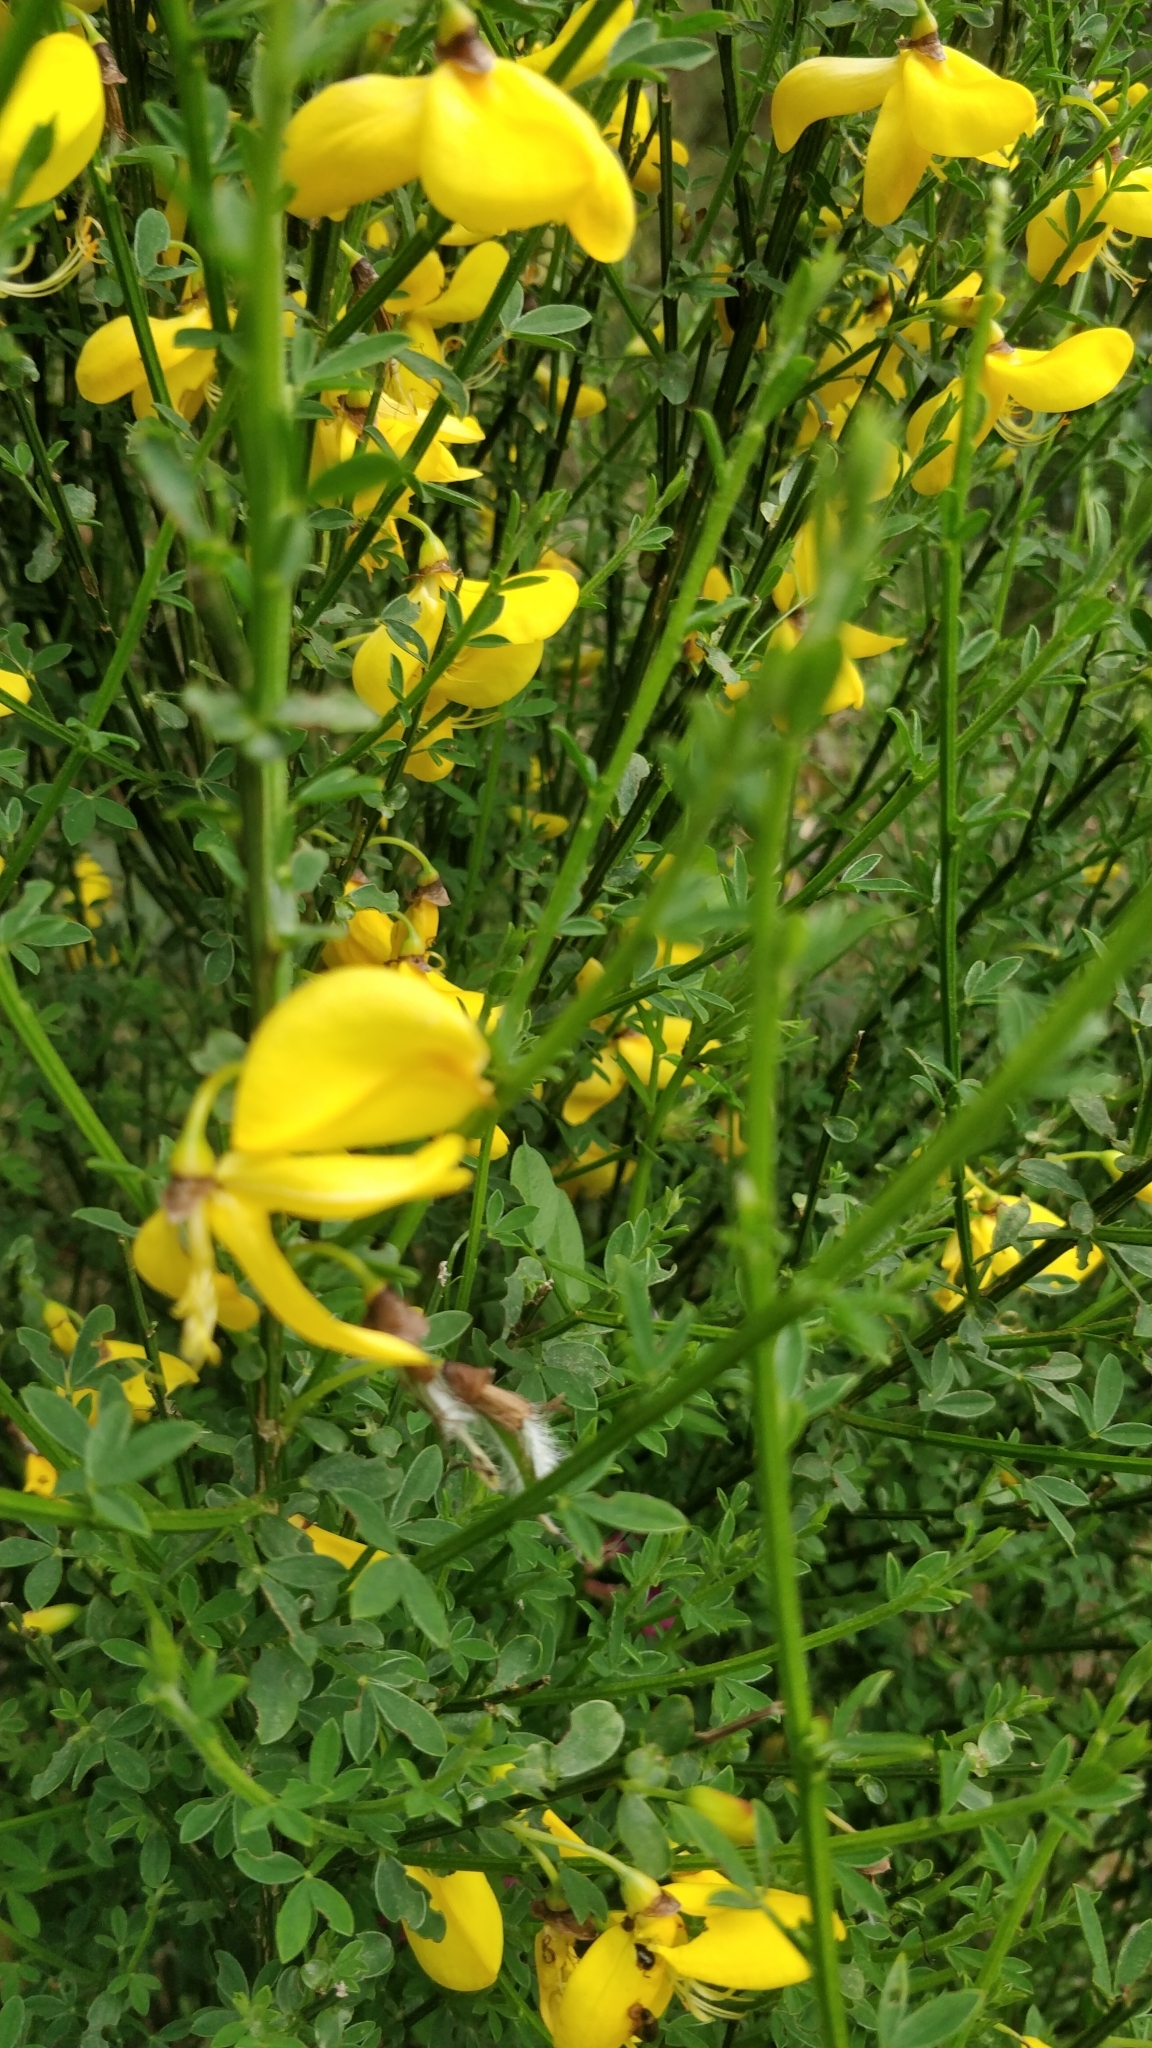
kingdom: Plantae
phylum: Tracheophyta
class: Magnoliopsida
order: Fabales
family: Fabaceae
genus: Cytisus
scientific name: Cytisus scoparius
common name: Scotch broom
